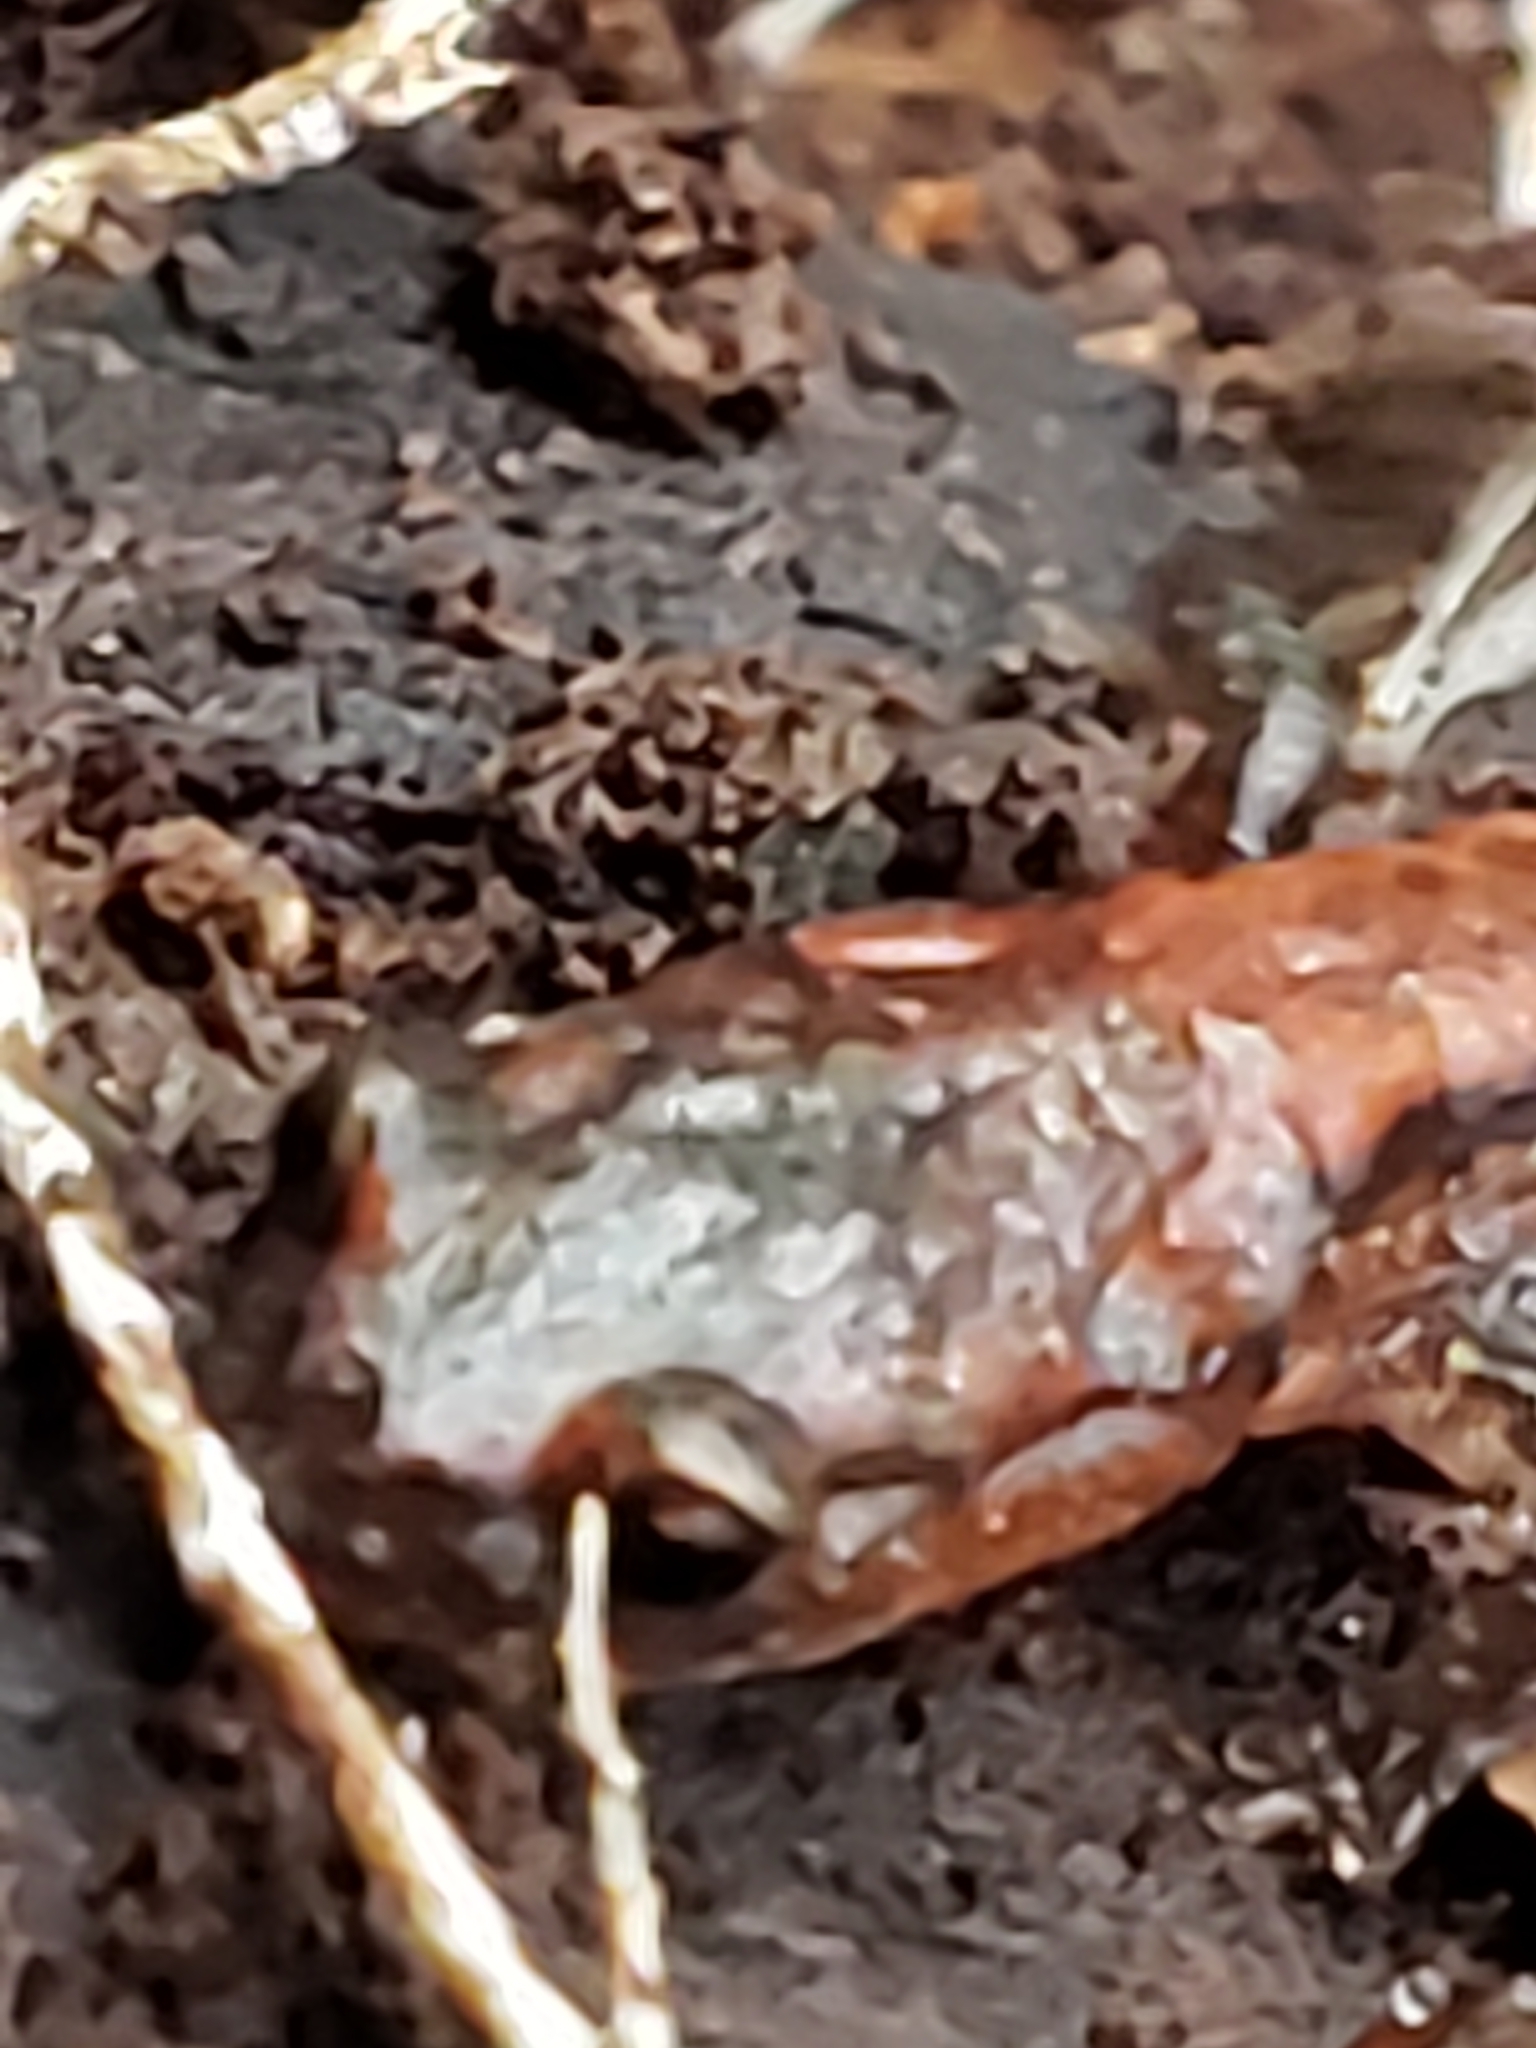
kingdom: Animalia
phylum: Chordata
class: Amphibia
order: Caudata
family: Plethodontidae
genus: Plethodon
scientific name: Plethodon cinereus
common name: Redback salamander
